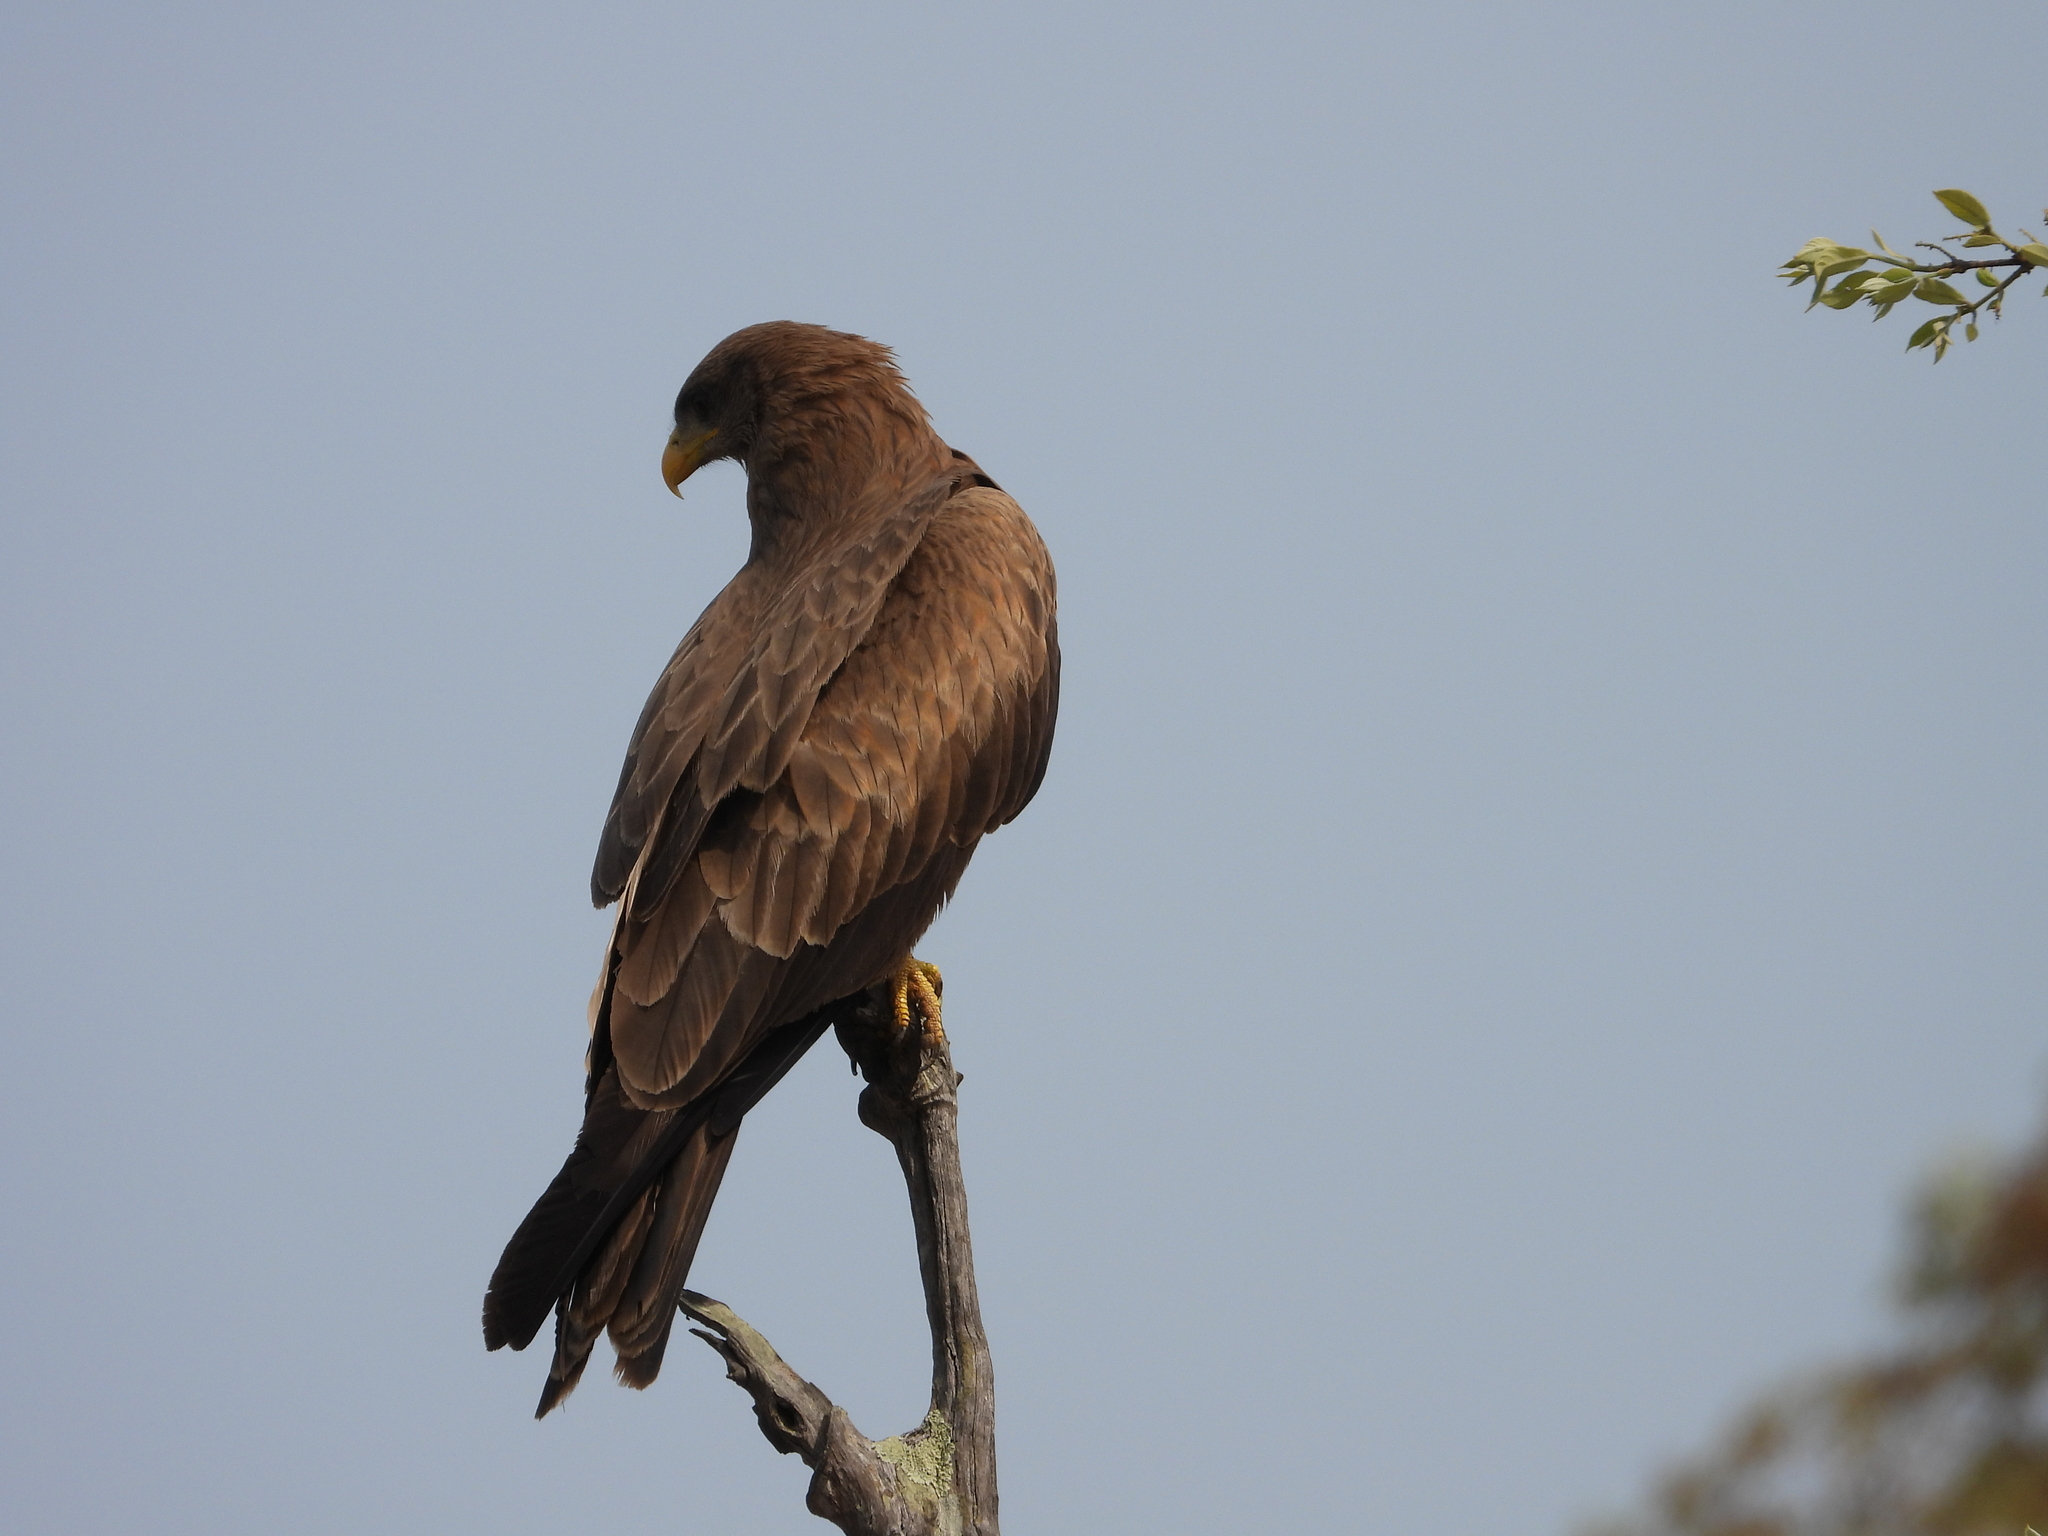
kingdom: Animalia
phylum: Chordata
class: Aves
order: Accipitriformes
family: Accipitridae
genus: Milvus
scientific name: Milvus migrans
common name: Black kite
